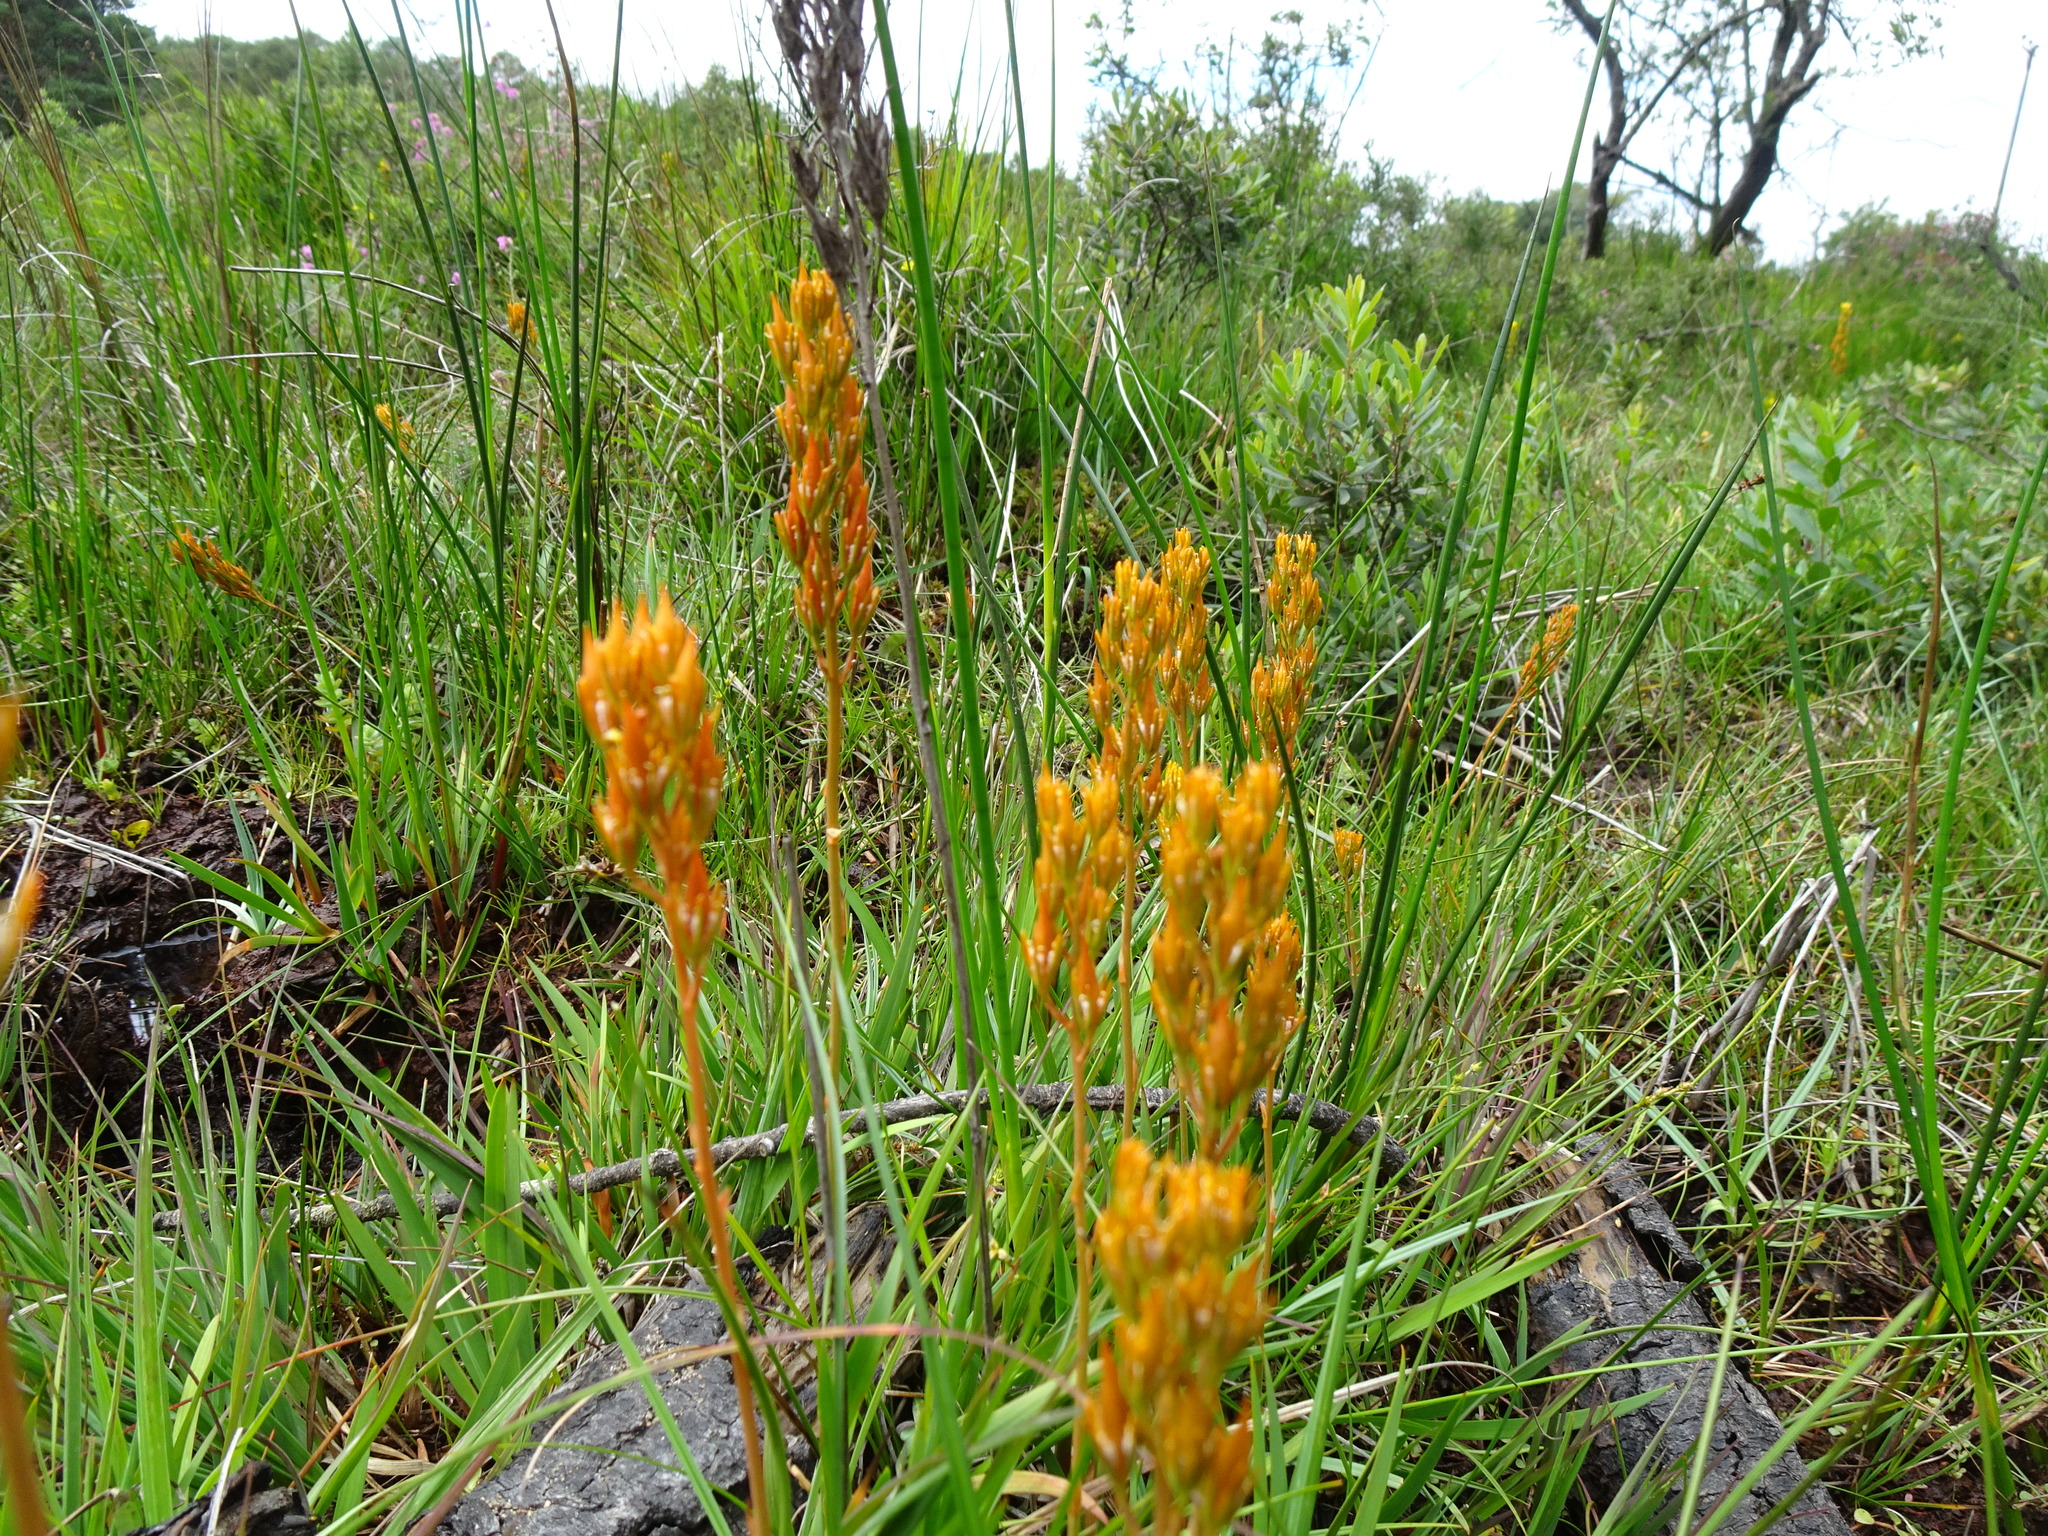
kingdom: Plantae
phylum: Tracheophyta
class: Liliopsida
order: Dioscoreales
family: Nartheciaceae
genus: Narthecium
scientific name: Narthecium ossifragum
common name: Bog asphodel
